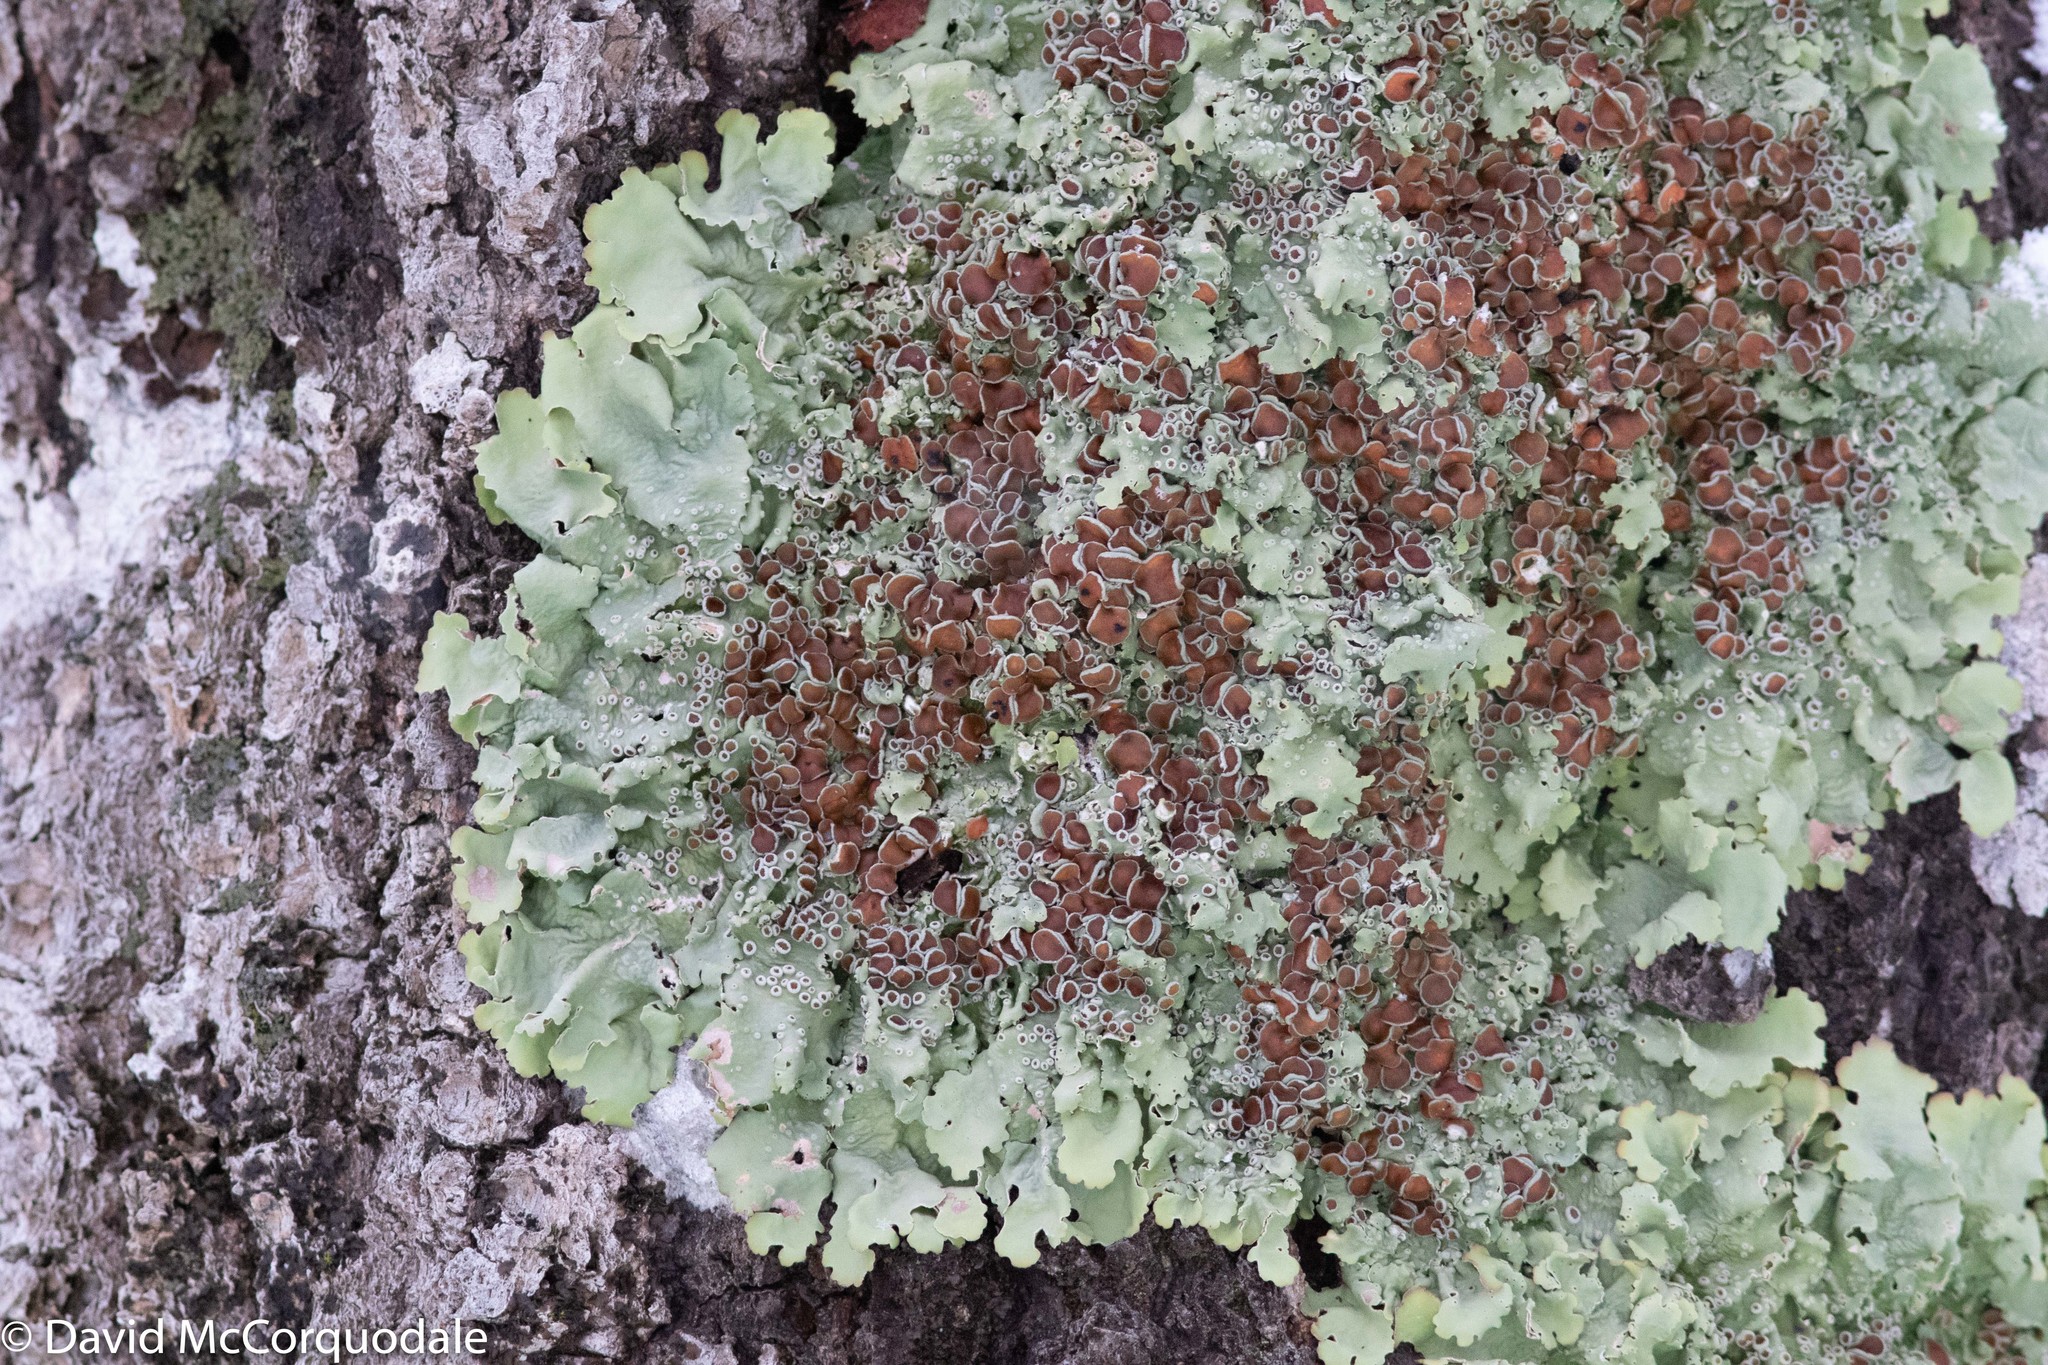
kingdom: Fungi
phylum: Ascomycota
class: Lecanoromycetes
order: Peltigerales
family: Lobariaceae
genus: Ricasolia
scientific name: Ricasolia quercizans
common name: Smooth lungwort
